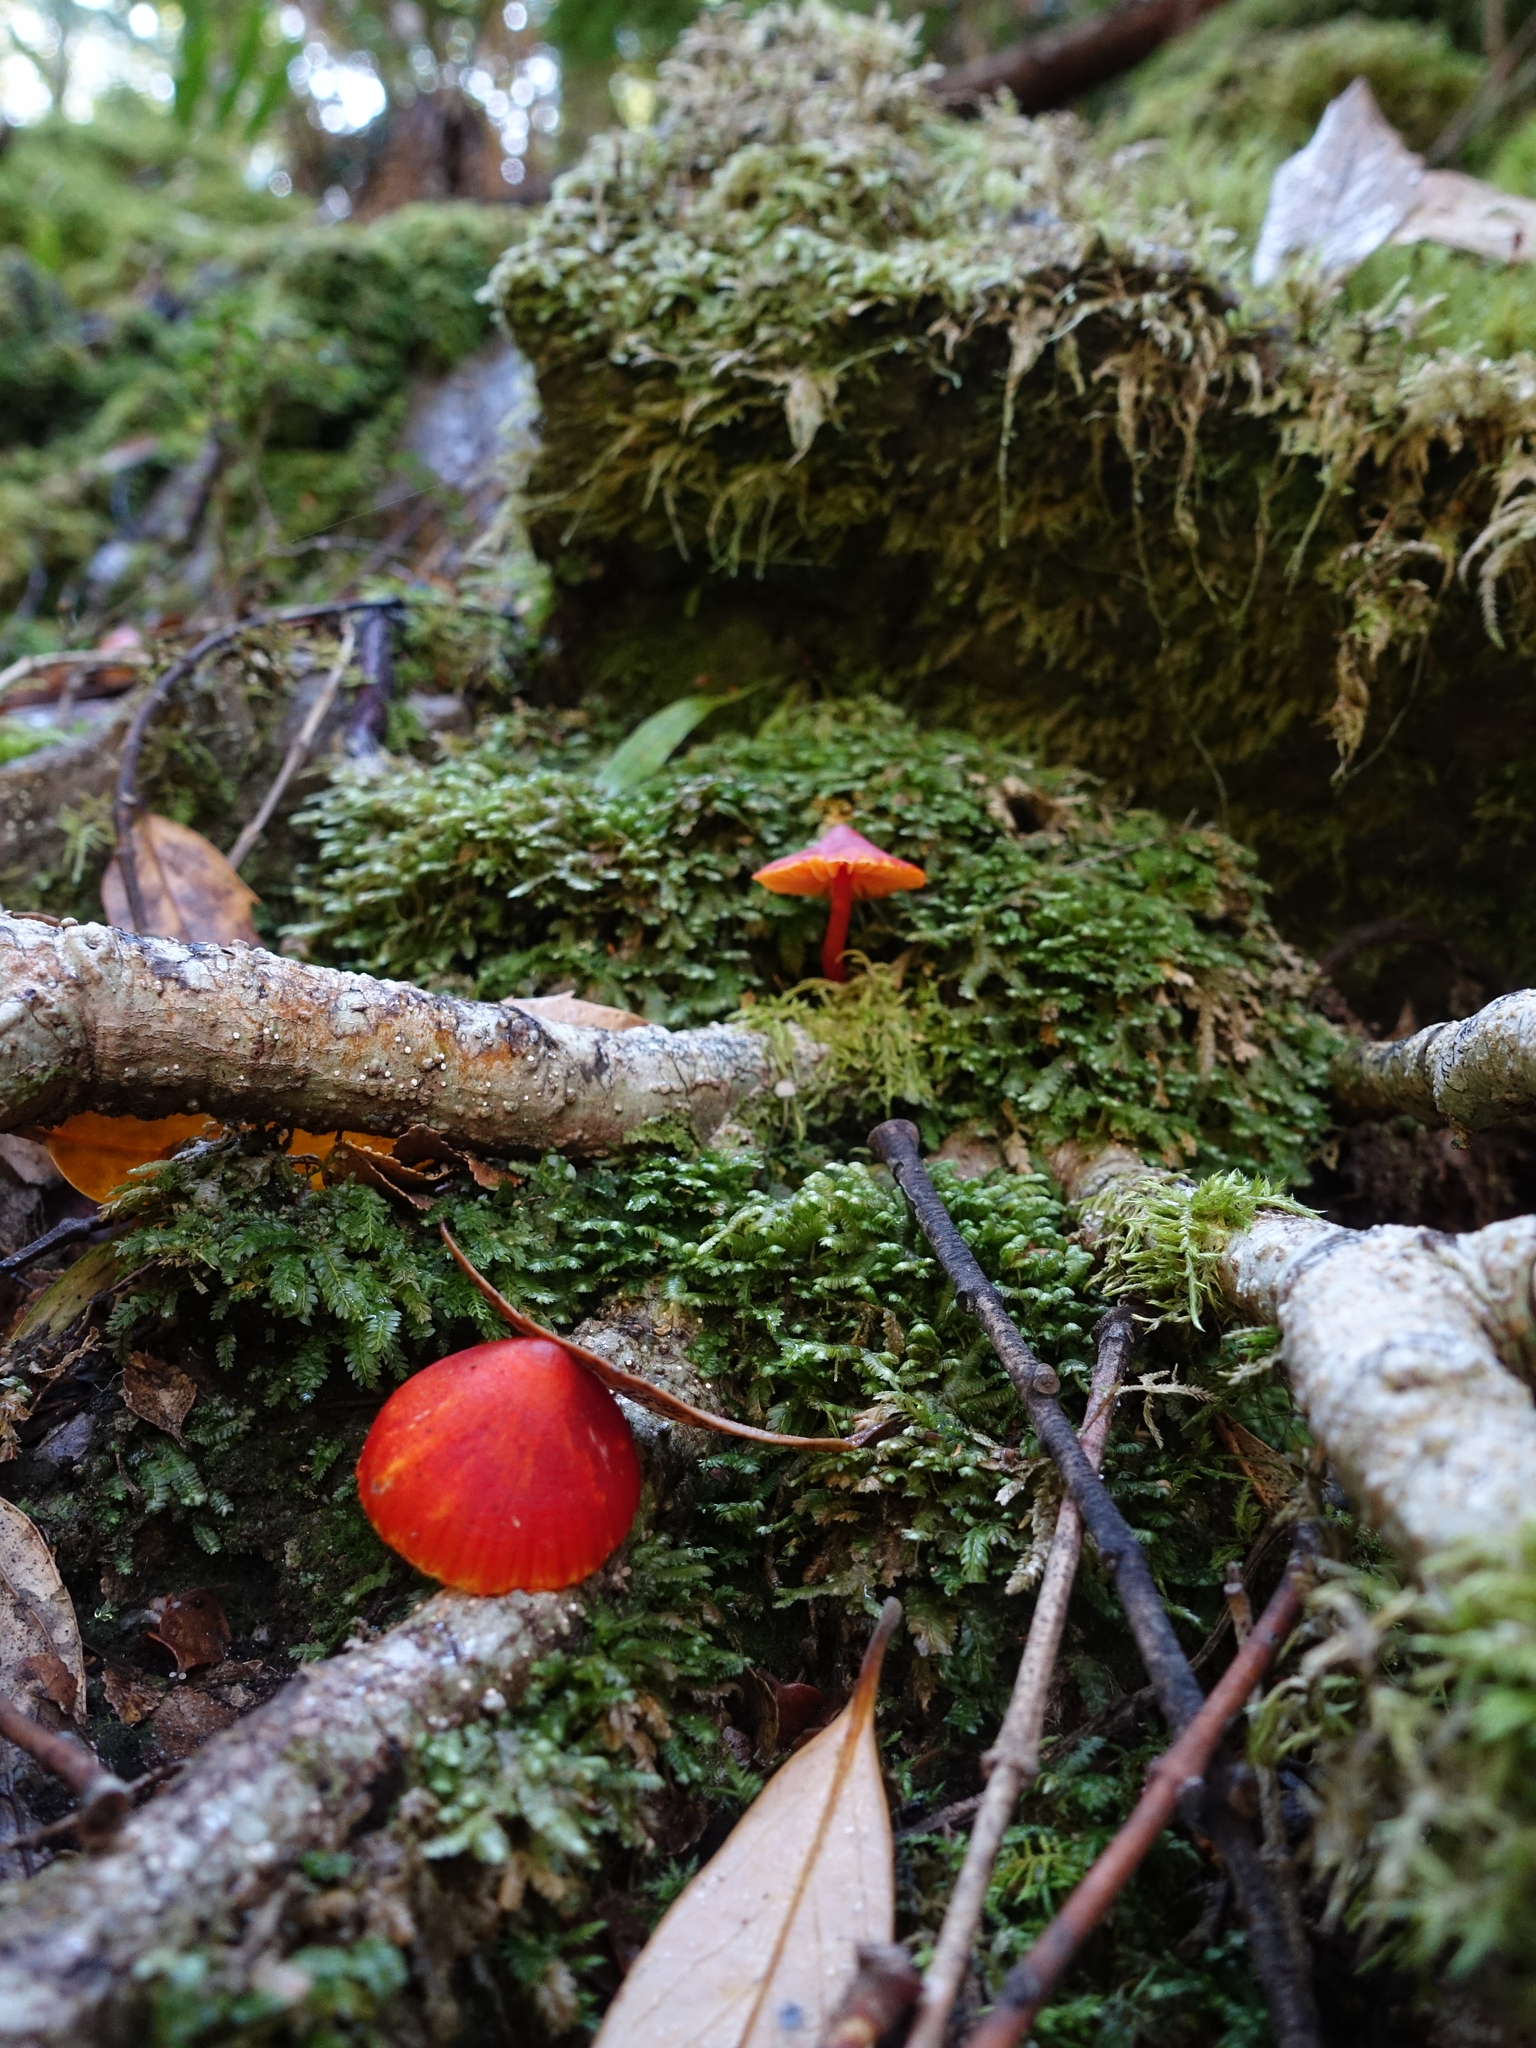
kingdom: Fungi
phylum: Basidiomycota
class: Agaricomycetes
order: Agaricales
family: Hygrophoraceae
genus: Hygrocybe
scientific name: Hygrocybe firma
